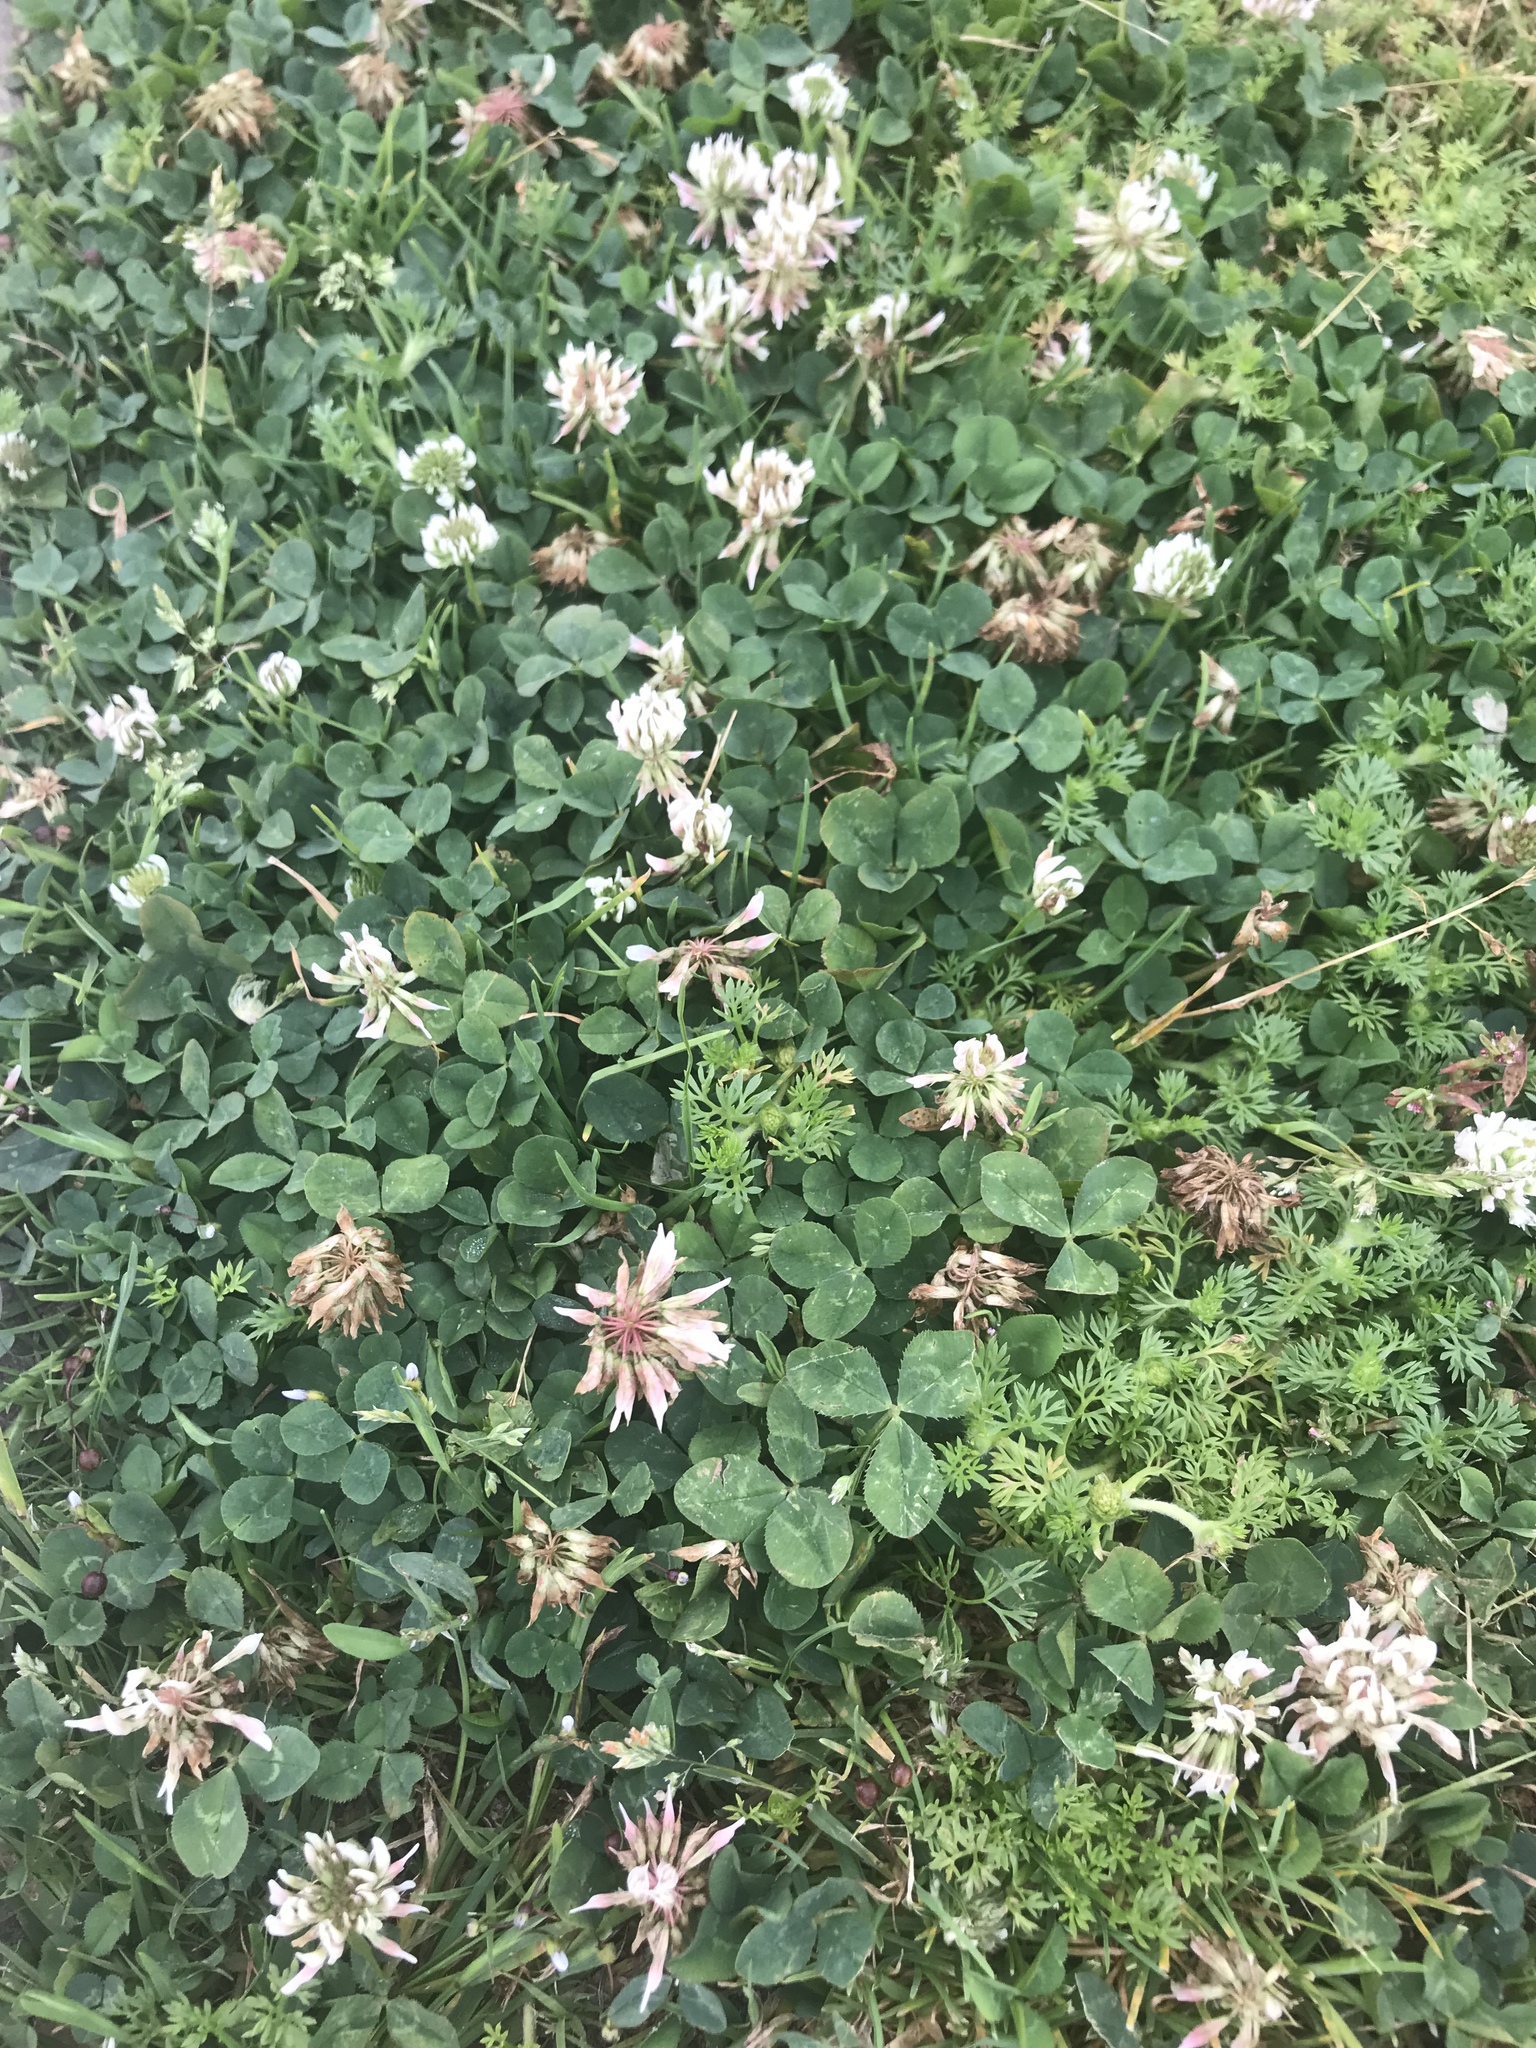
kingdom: Plantae
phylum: Tracheophyta
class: Magnoliopsida
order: Fabales
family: Fabaceae
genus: Trifolium
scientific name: Trifolium repens
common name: White clover
